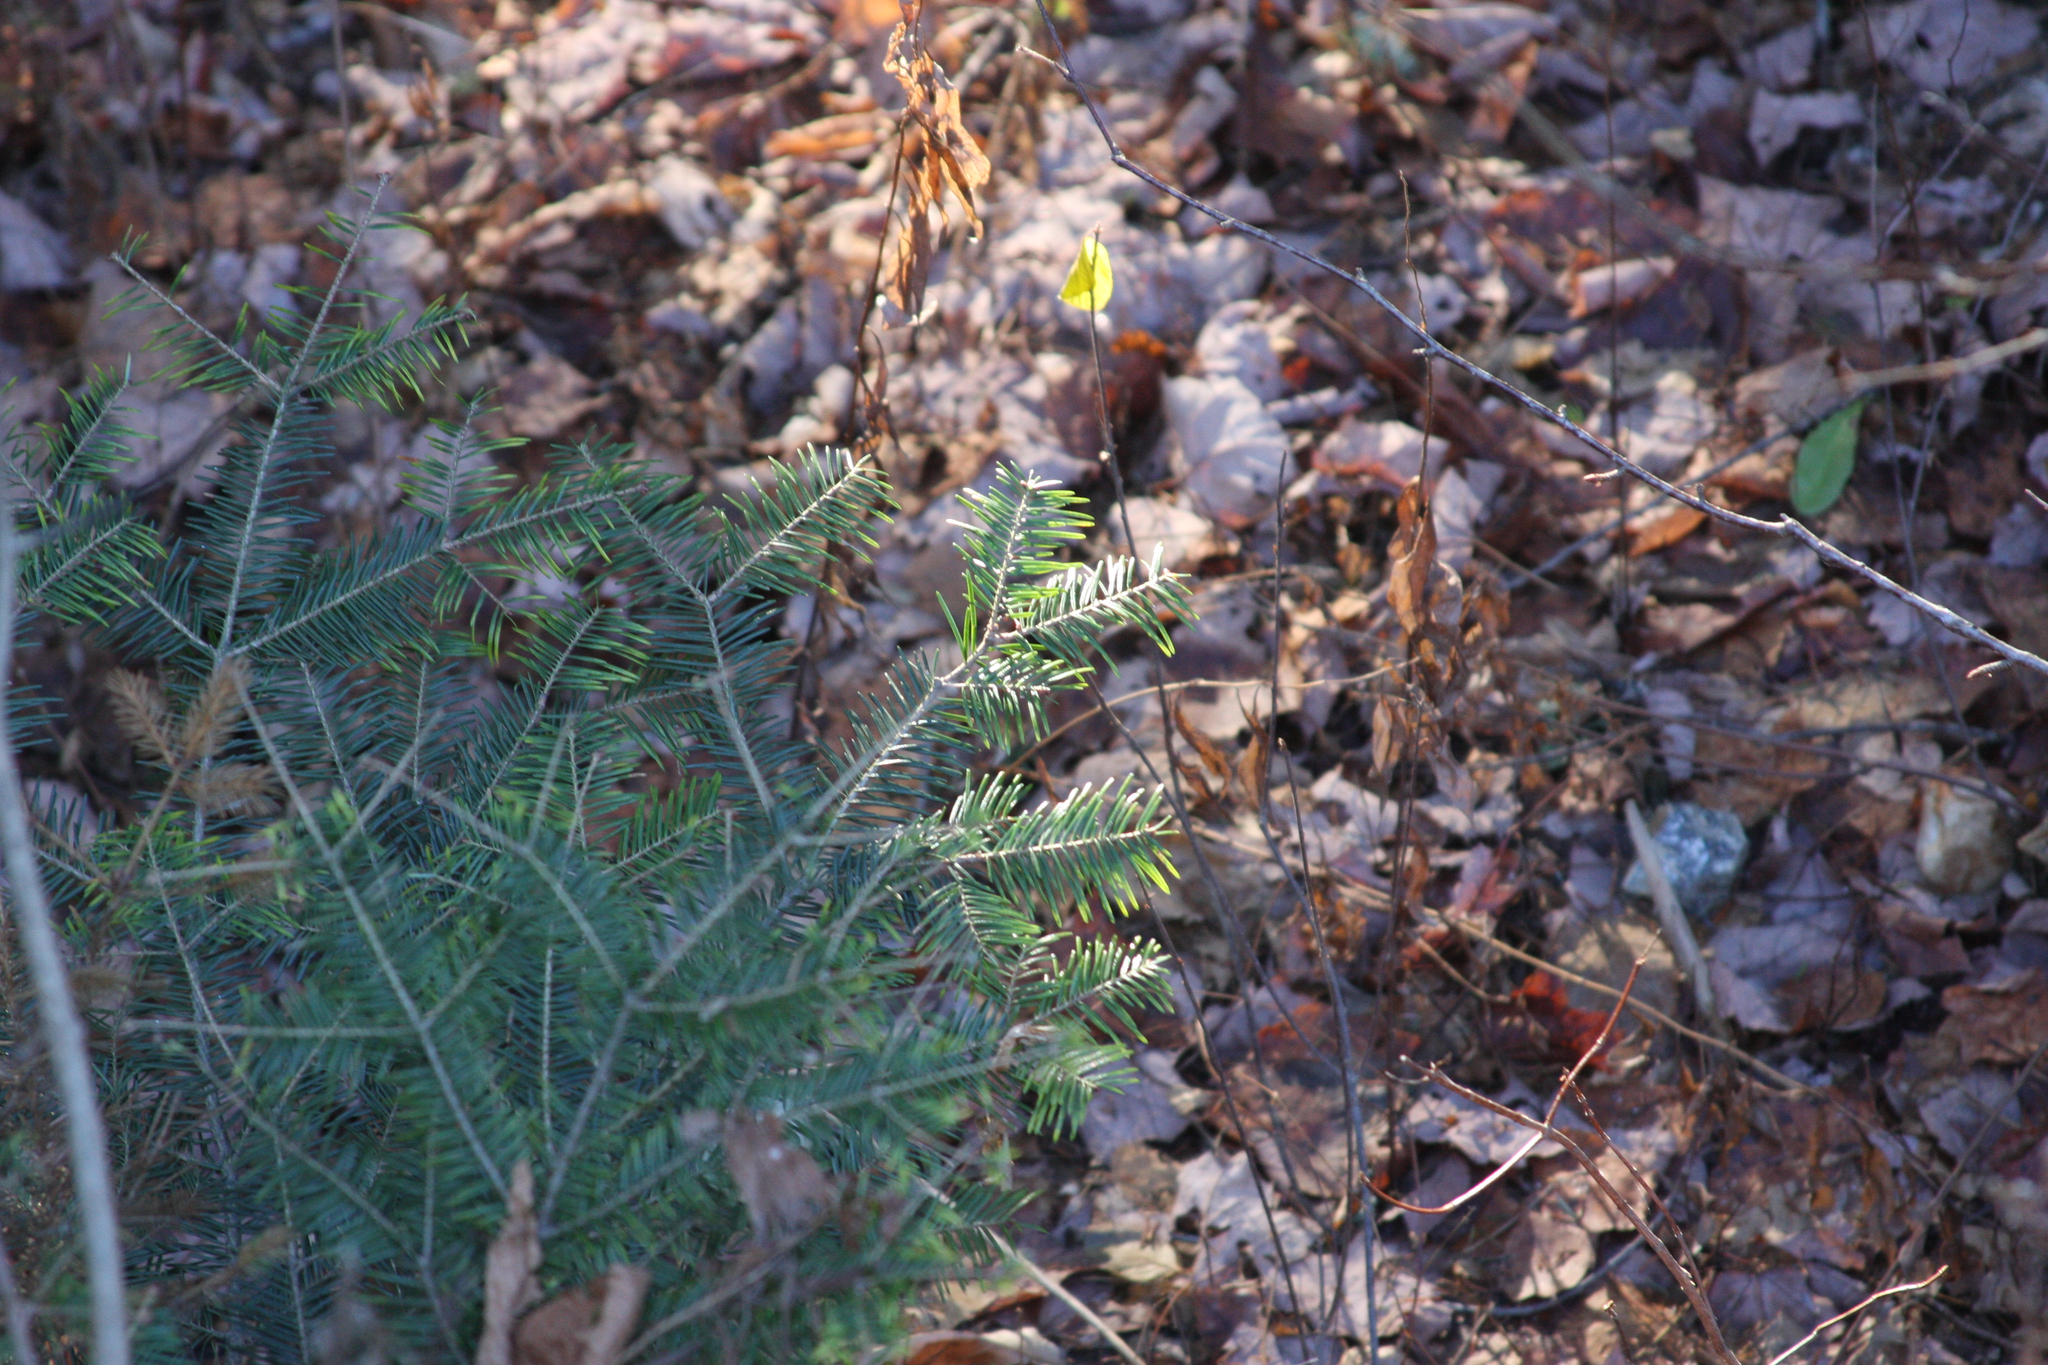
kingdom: Plantae
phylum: Tracheophyta
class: Pinopsida
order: Pinales
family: Pinaceae
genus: Abies
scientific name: Abies balsamea
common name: Balsam fir
